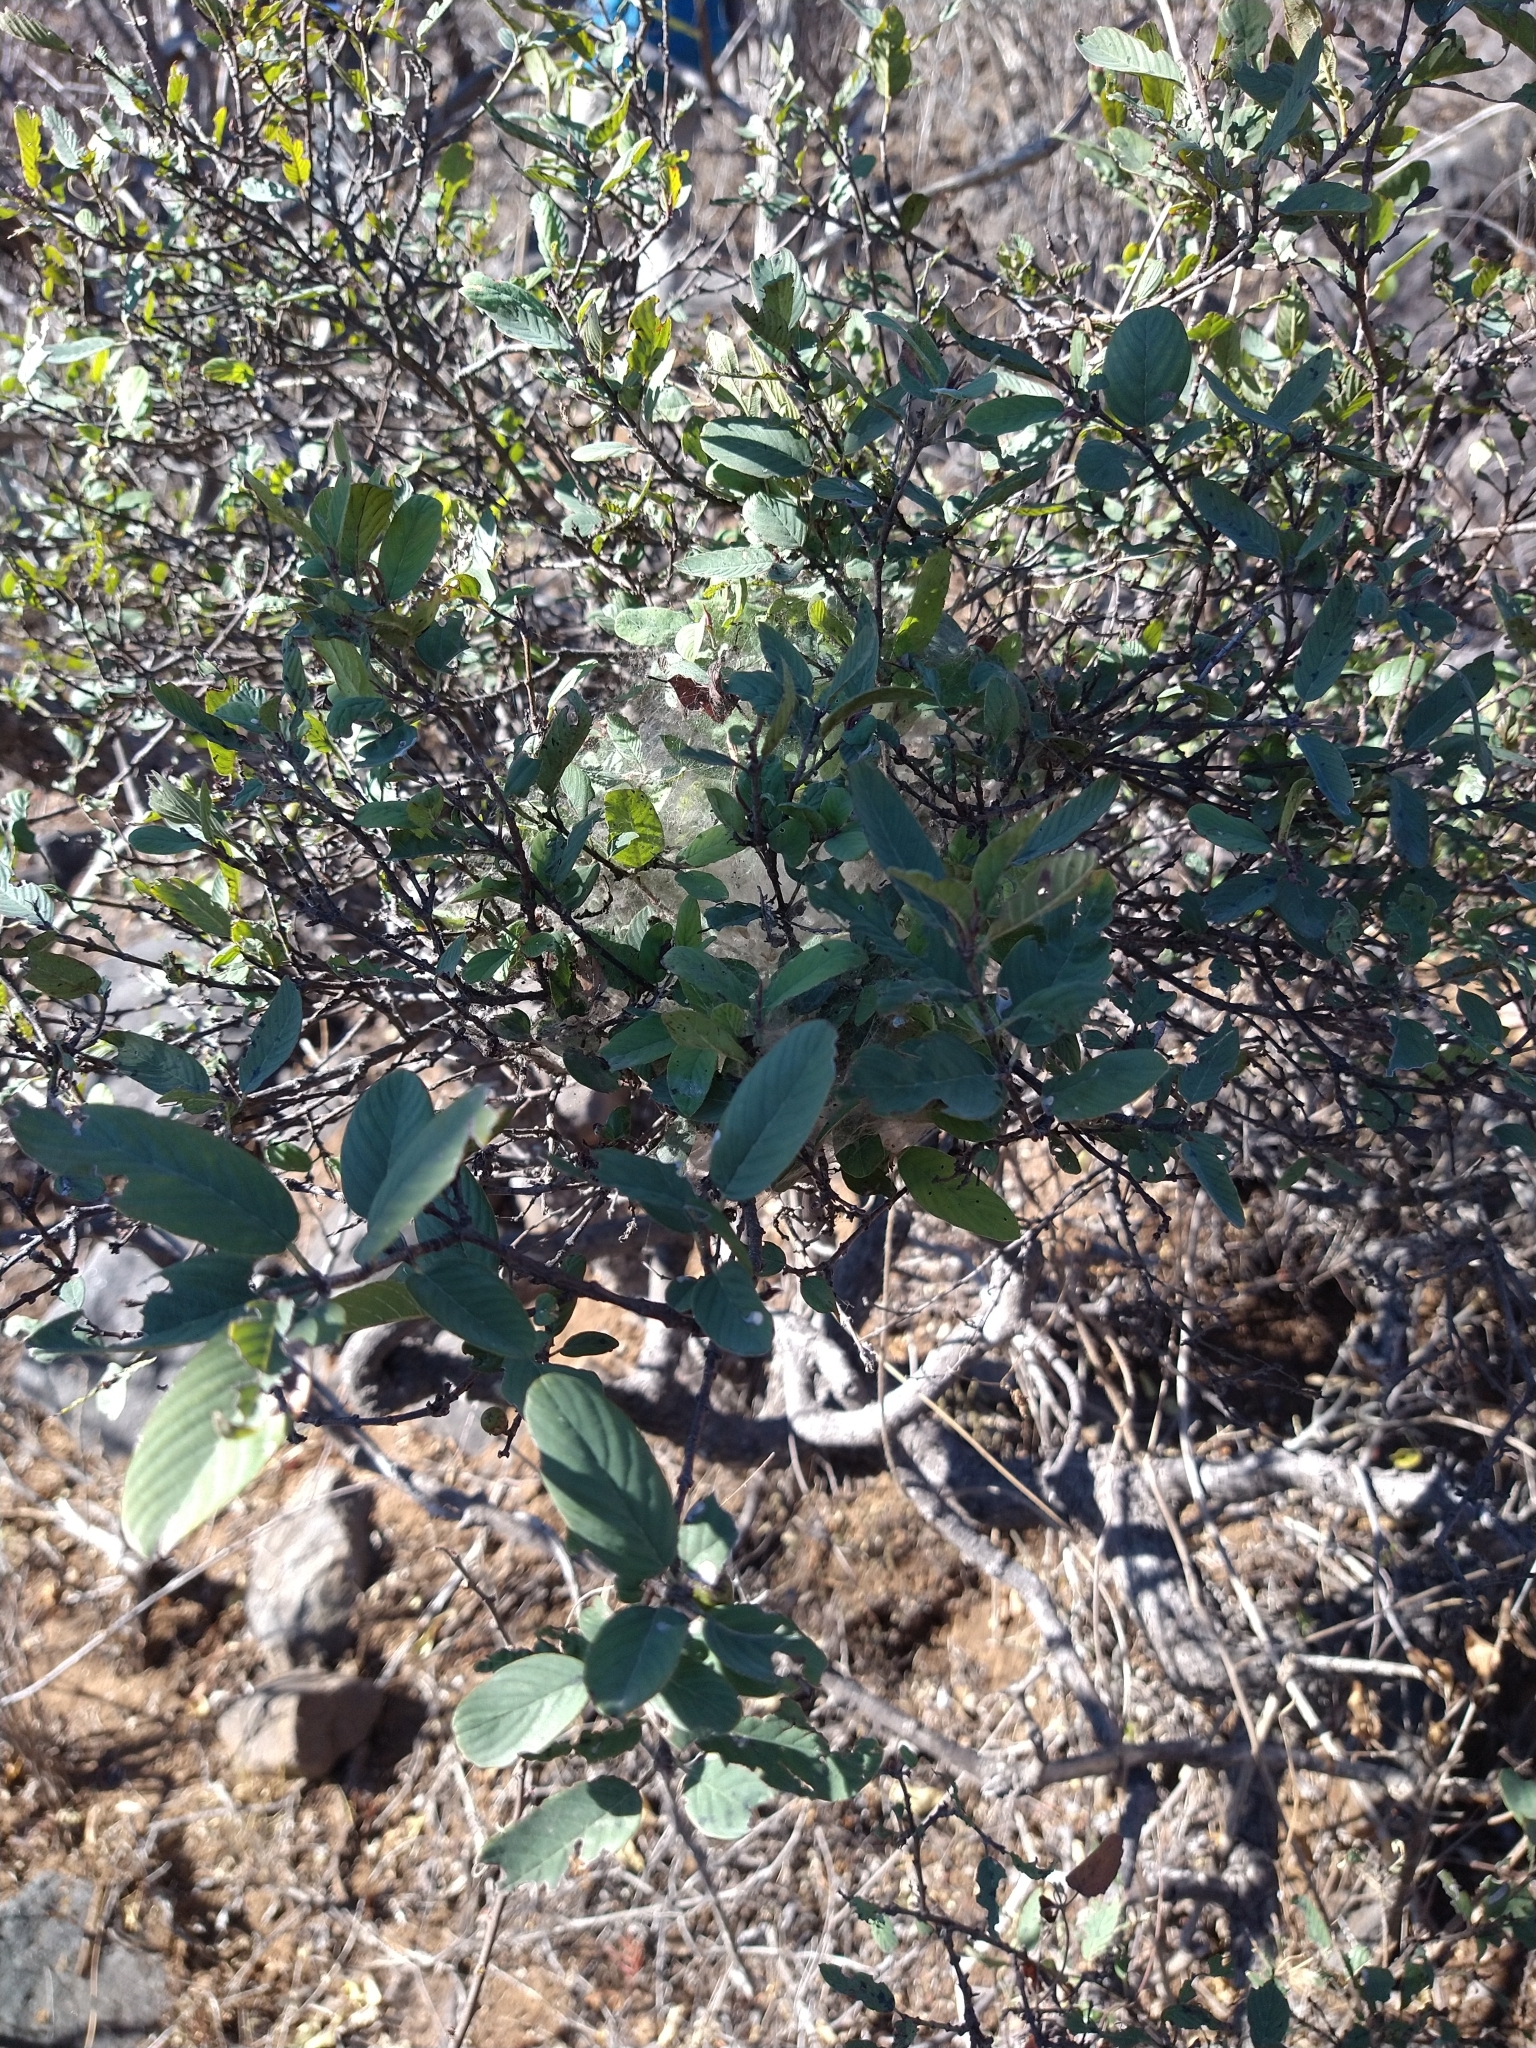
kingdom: Plantae
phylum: Tracheophyta
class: Magnoliopsida
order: Rosales
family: Rhamnaceae
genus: Karwinskia
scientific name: Karwinskia humboldtiana
